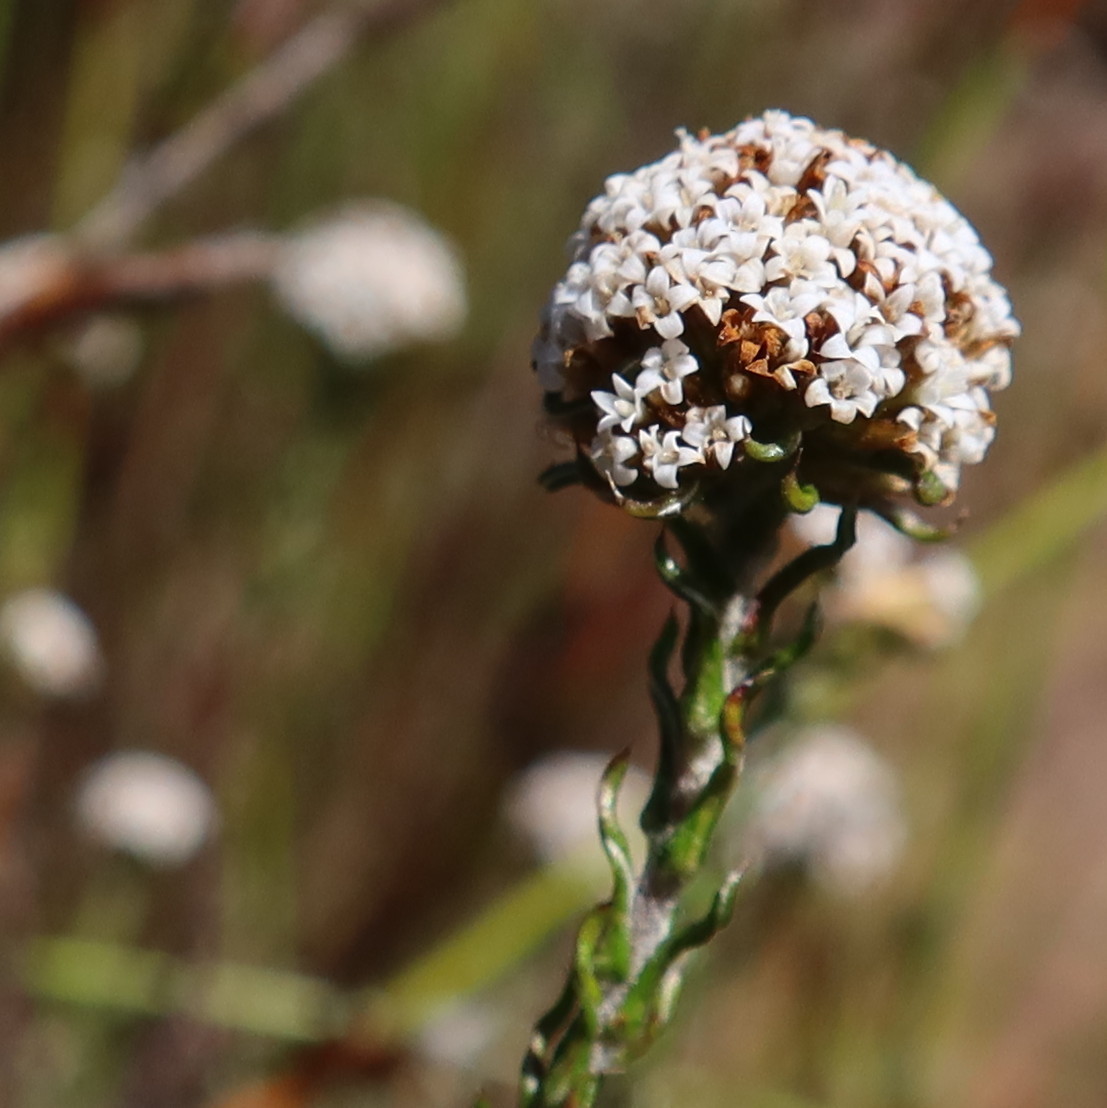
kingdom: Plantae
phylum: Tracheophyta
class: Magnoliopsida
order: Asterales
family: Asteraceae
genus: Stoebe
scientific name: Stoebe capitata
